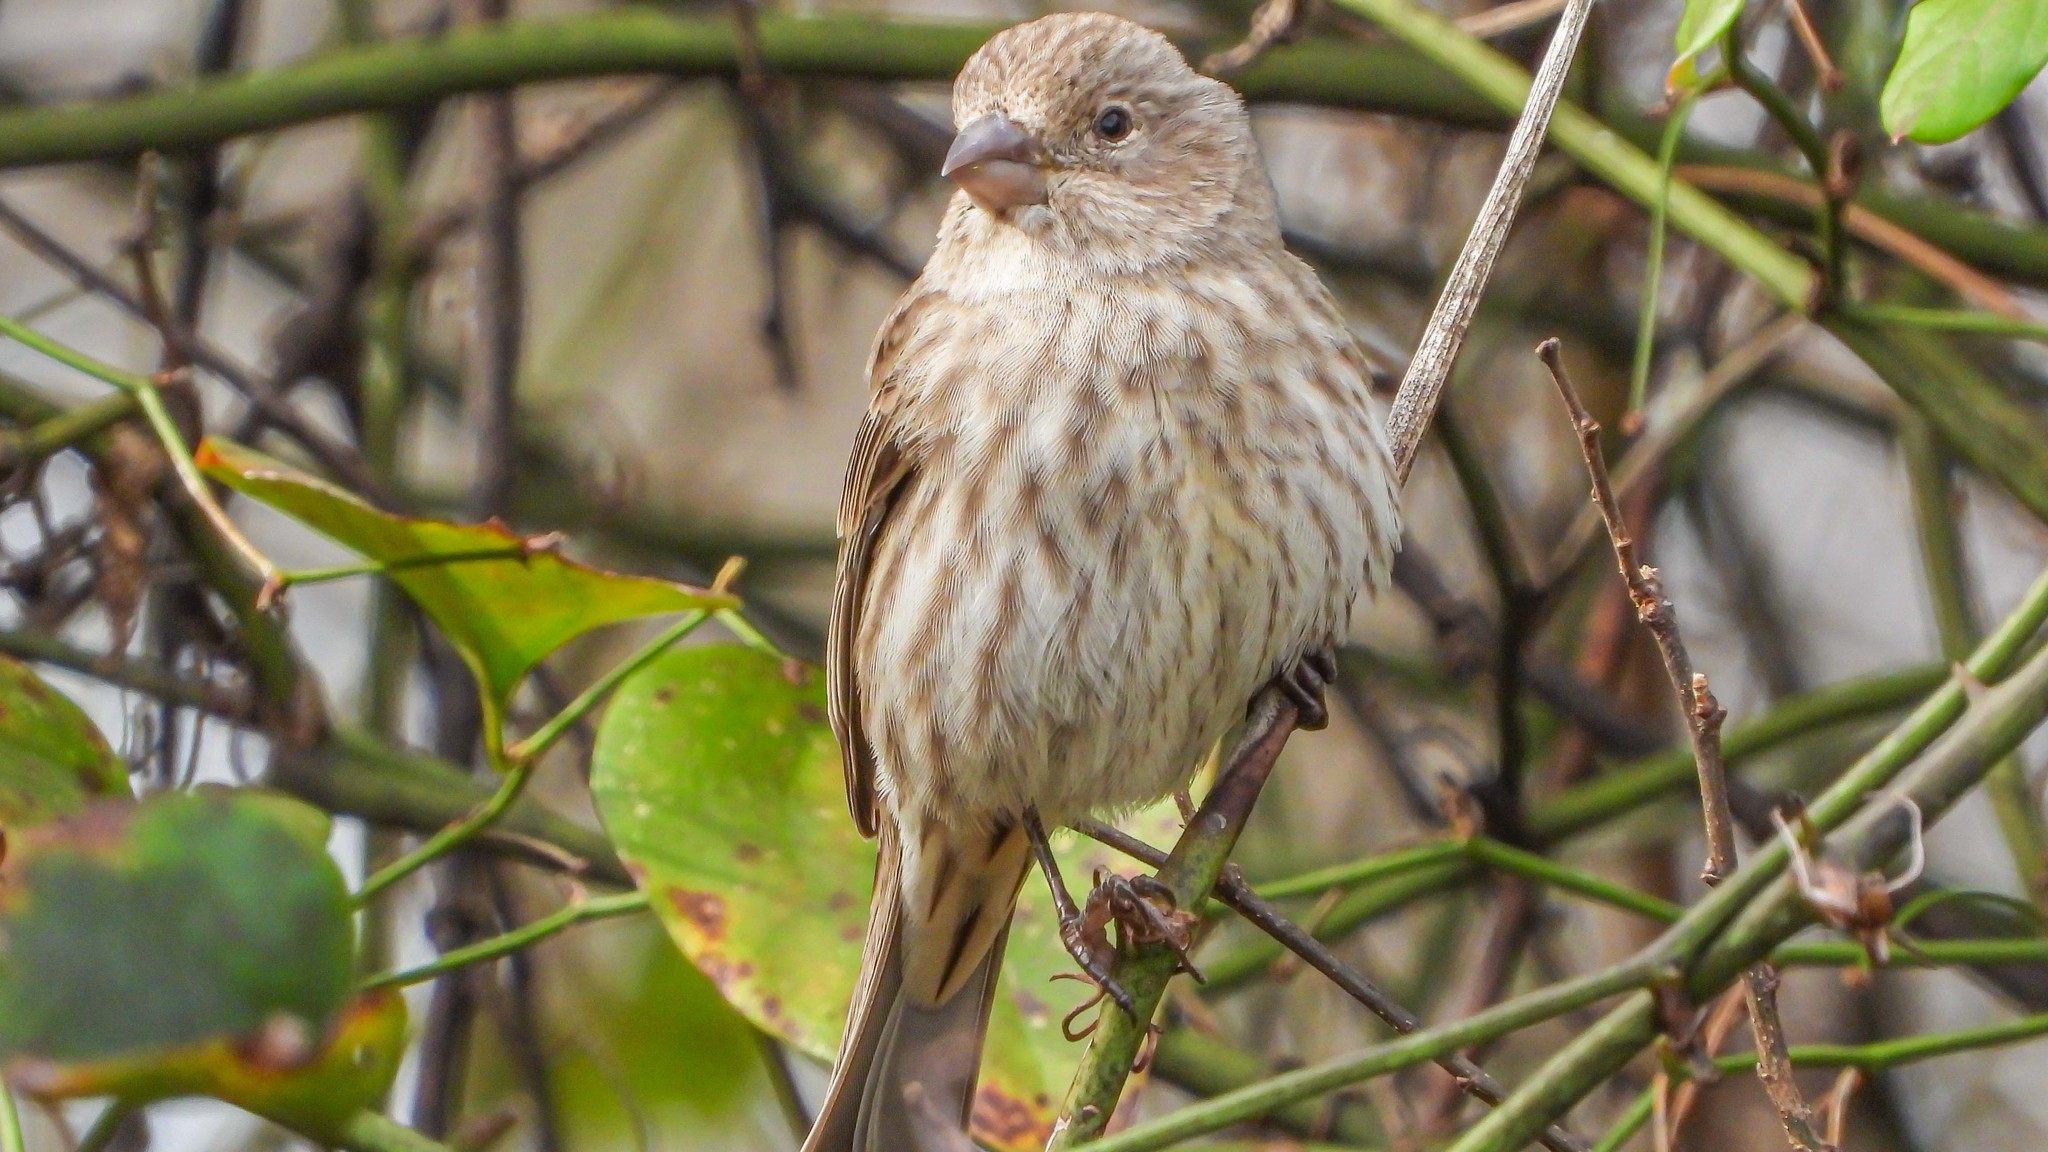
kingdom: Animalia
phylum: Chordata
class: Aves
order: Passeriformes
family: Fringillidae
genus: Haemorhous
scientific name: Haemorhous mexicanus
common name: House finch
